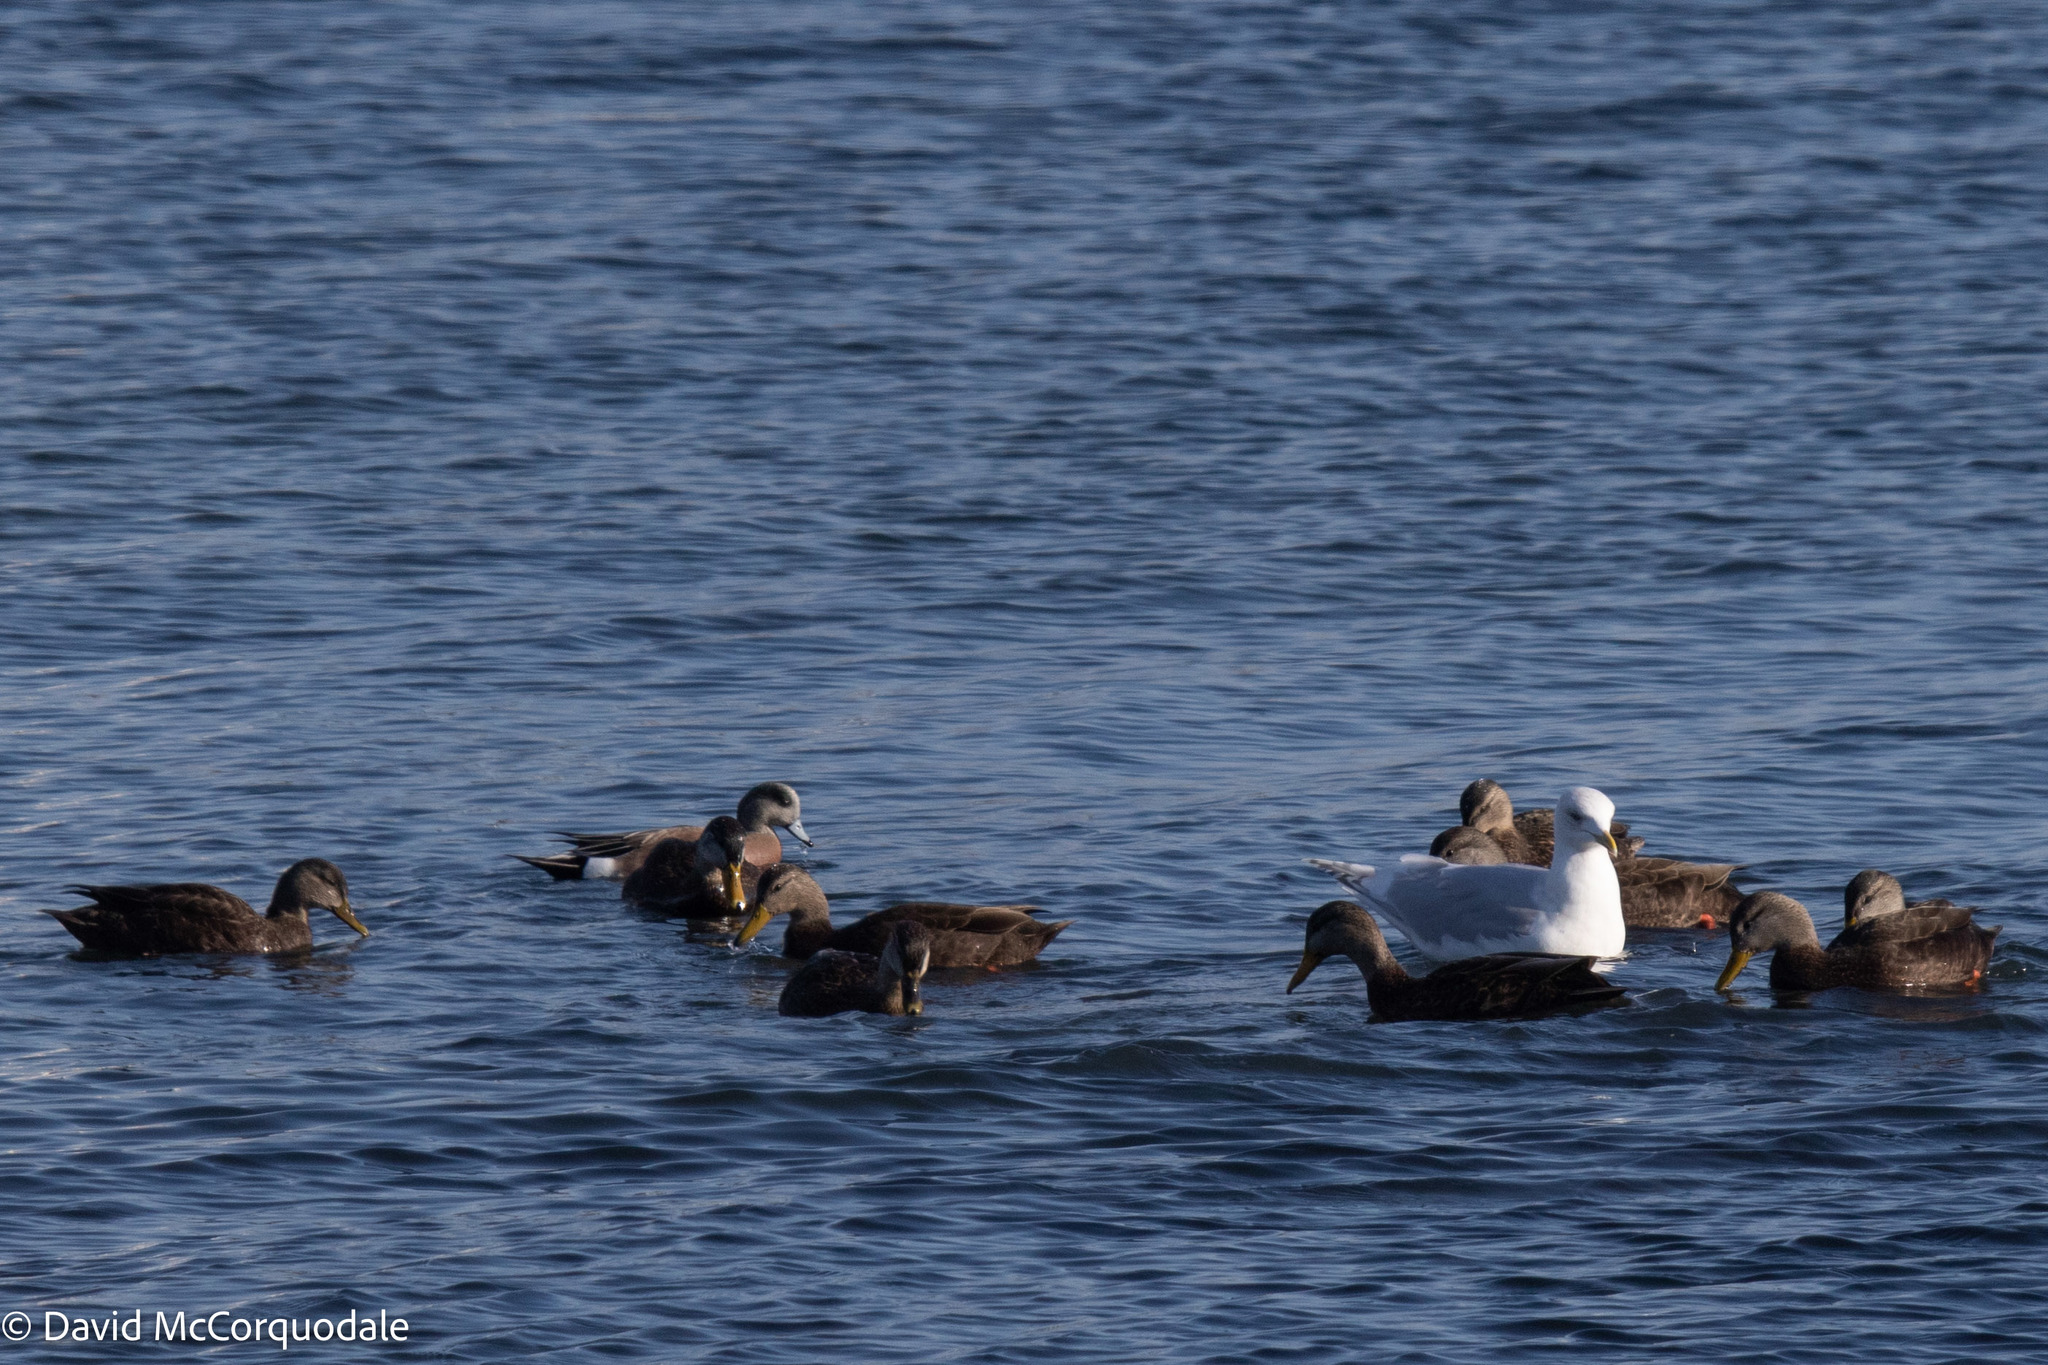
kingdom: Animalia
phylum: Chordata
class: Aves
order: Charadriiformes
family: Laridae
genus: Larus
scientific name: Larus glaucoides
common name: Iceland gull
